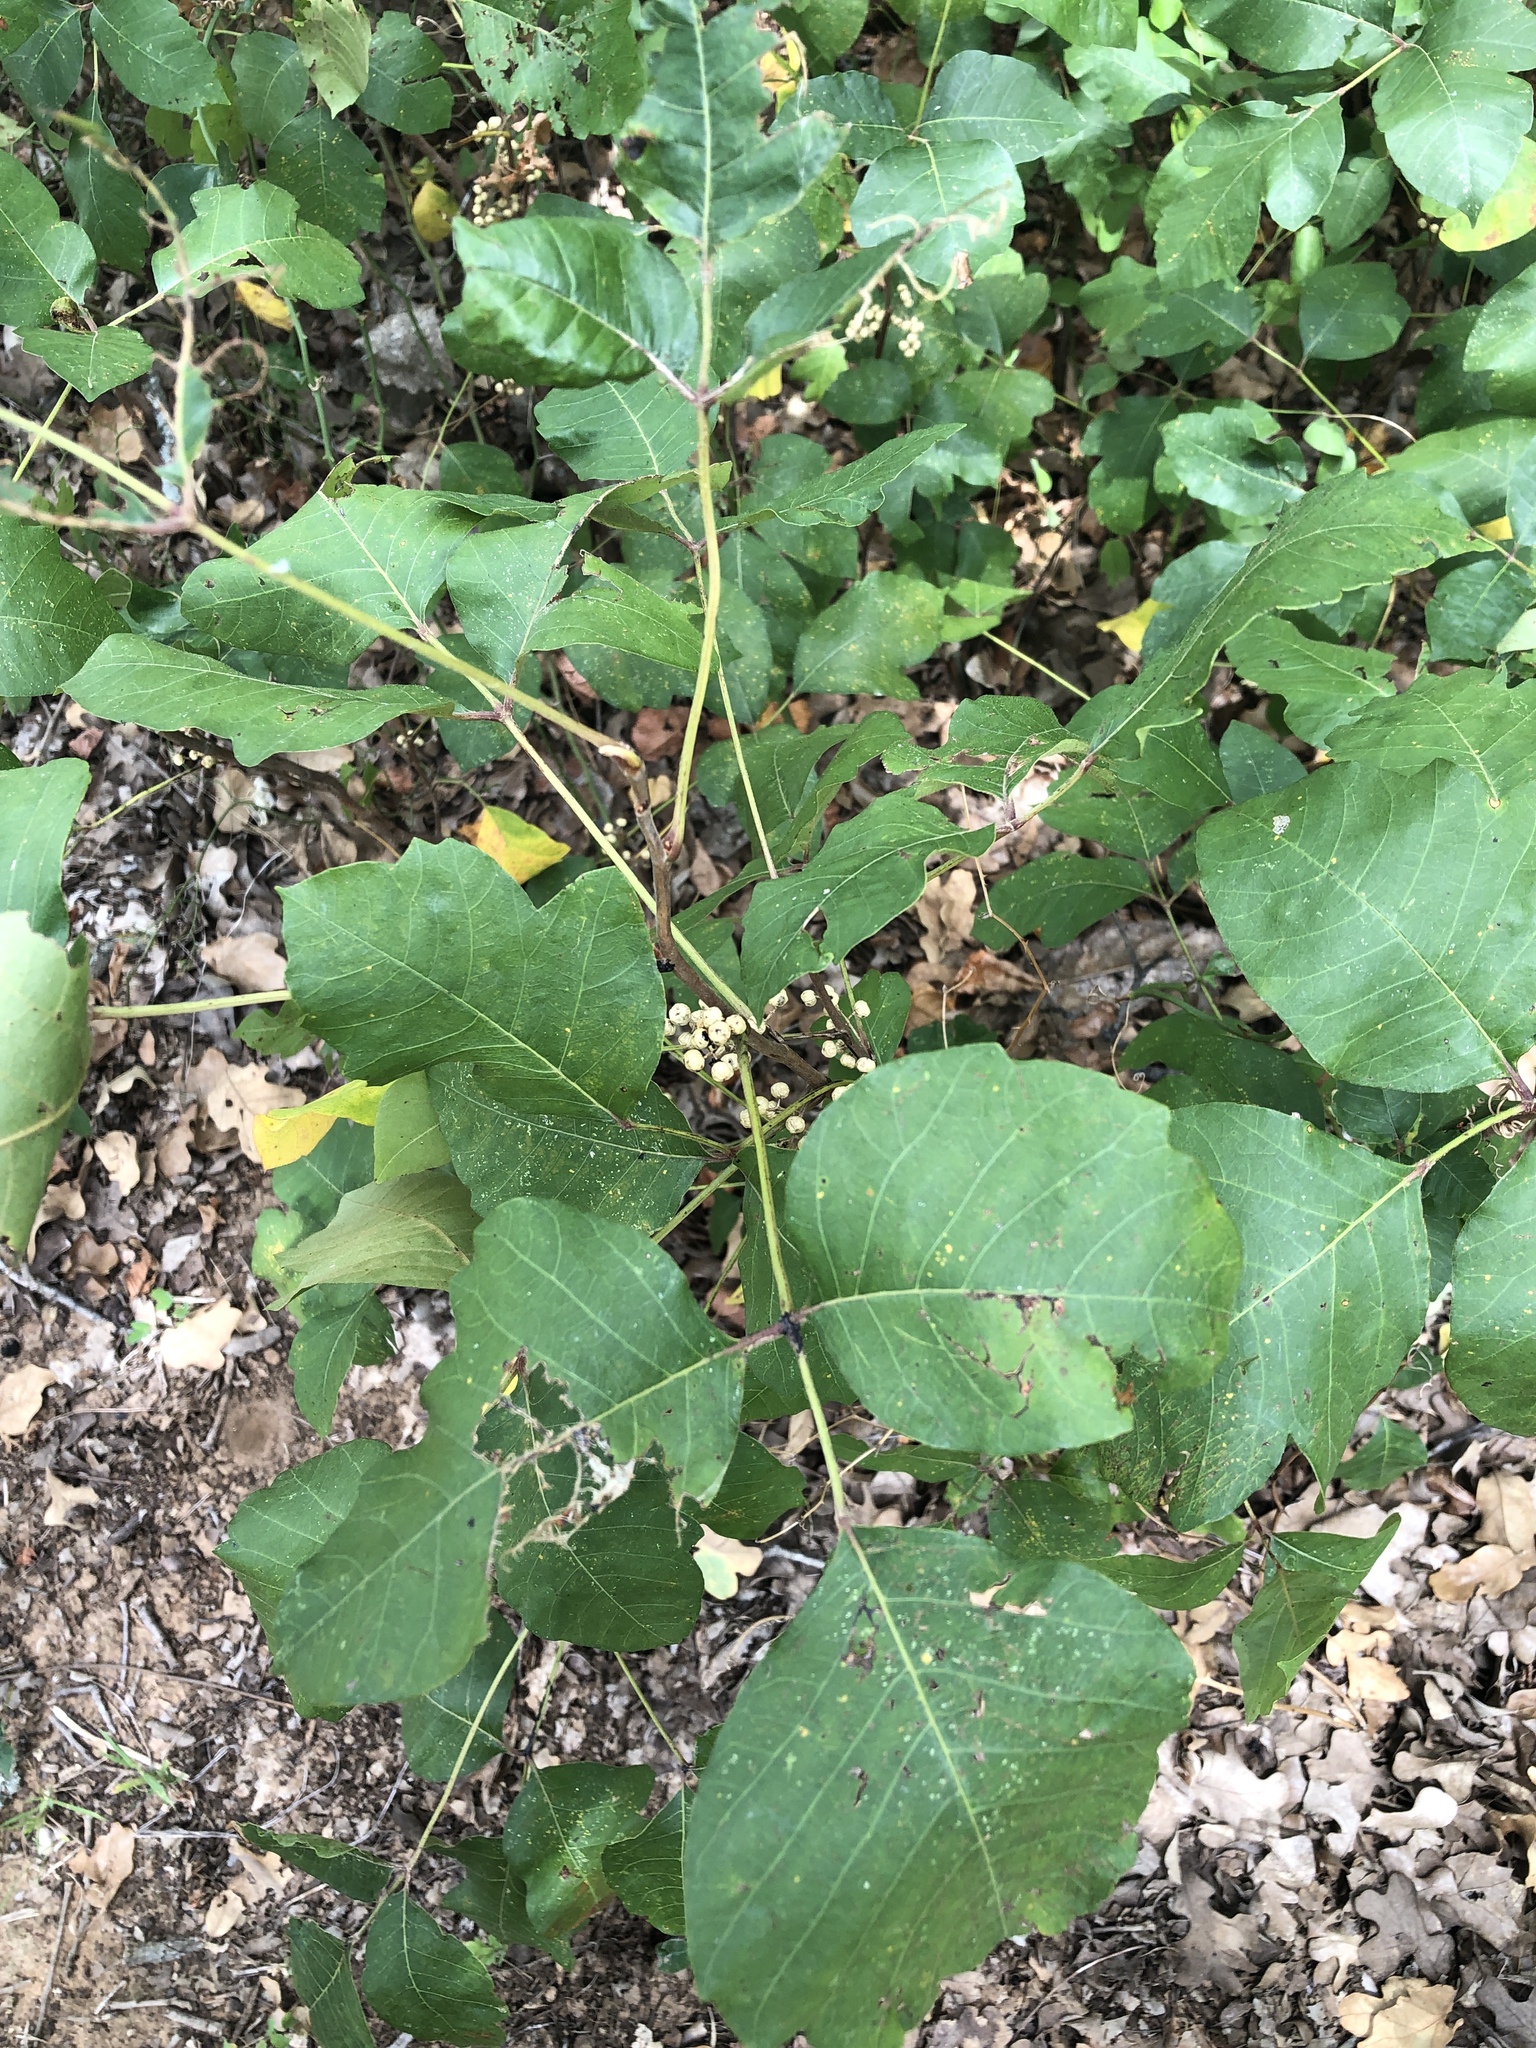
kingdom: Plantae
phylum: Tracheophyta
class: Magnoliopsida
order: Sapindales
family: Anacardiaceae
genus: Toxicodendron
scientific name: Toxicodendron radicans
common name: Poison ivy
